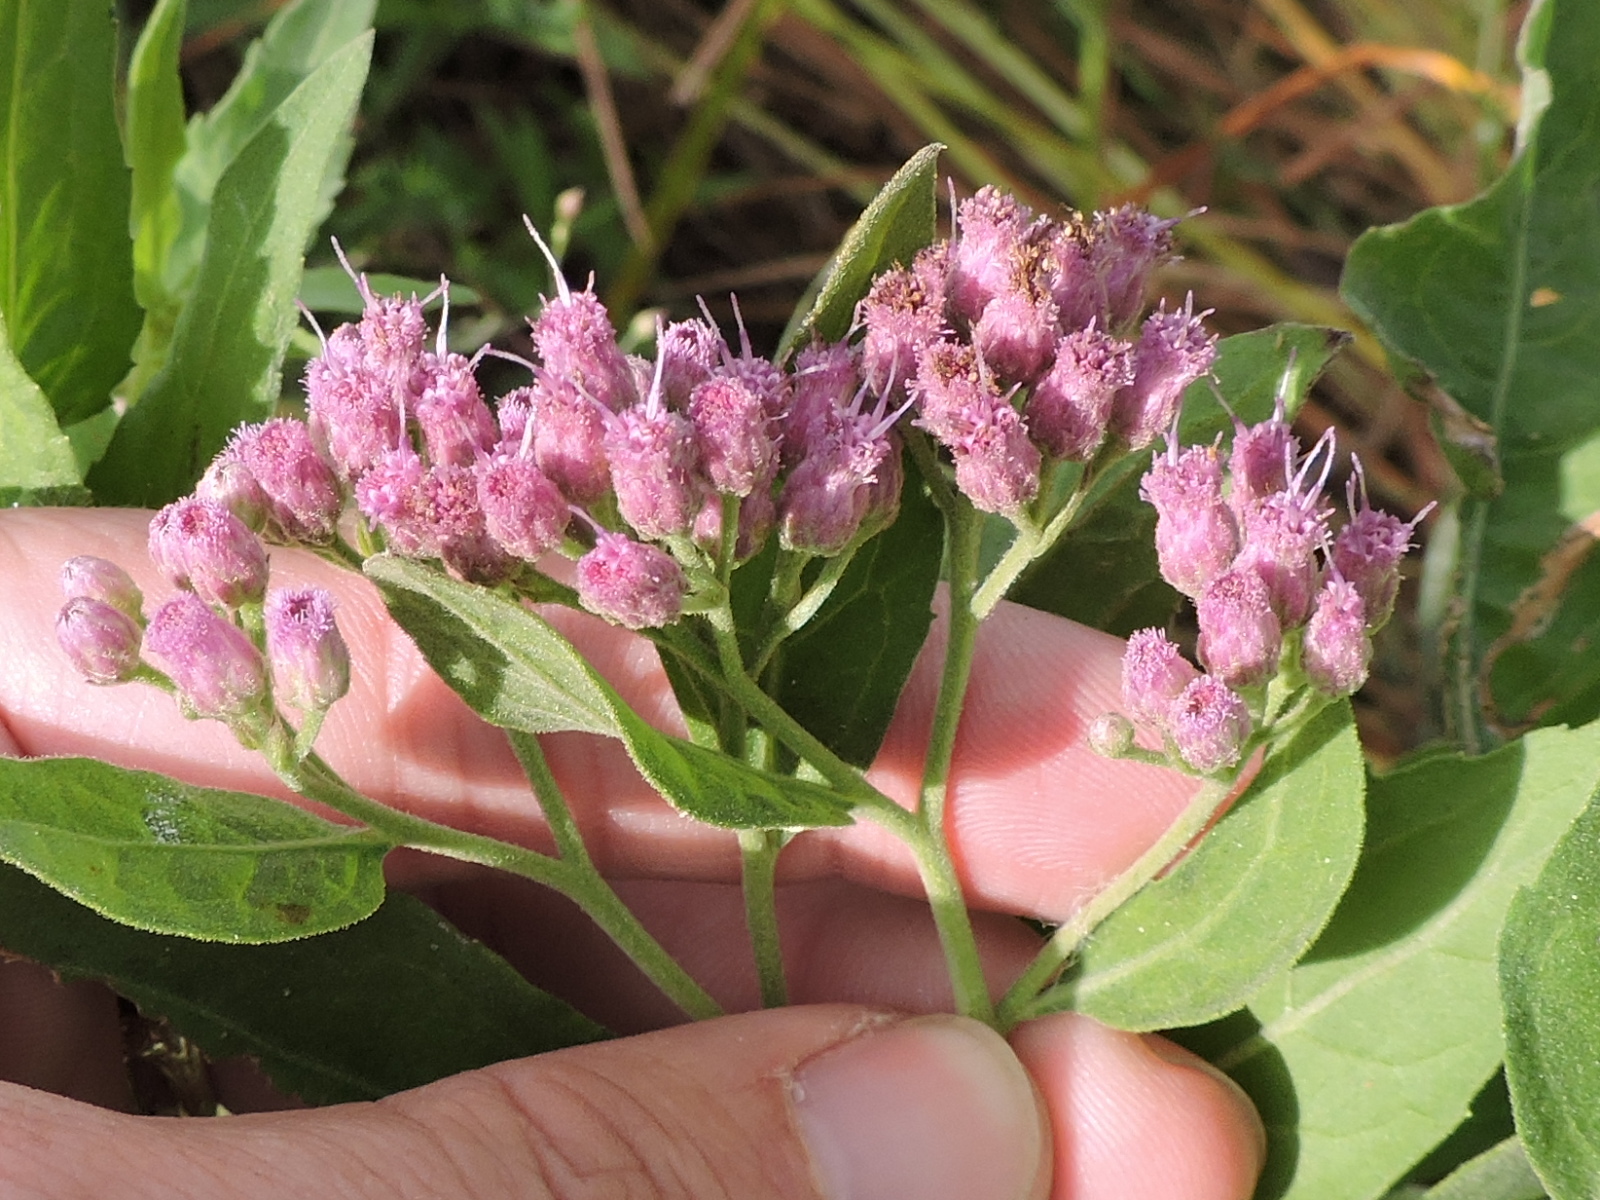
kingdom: Plantae
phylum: Tracheophyta
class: Magnoliopsida
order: Asterales
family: Asteraceae
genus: Pluchea
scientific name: Pluchea odorata
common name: Saltmarsh fleabane
